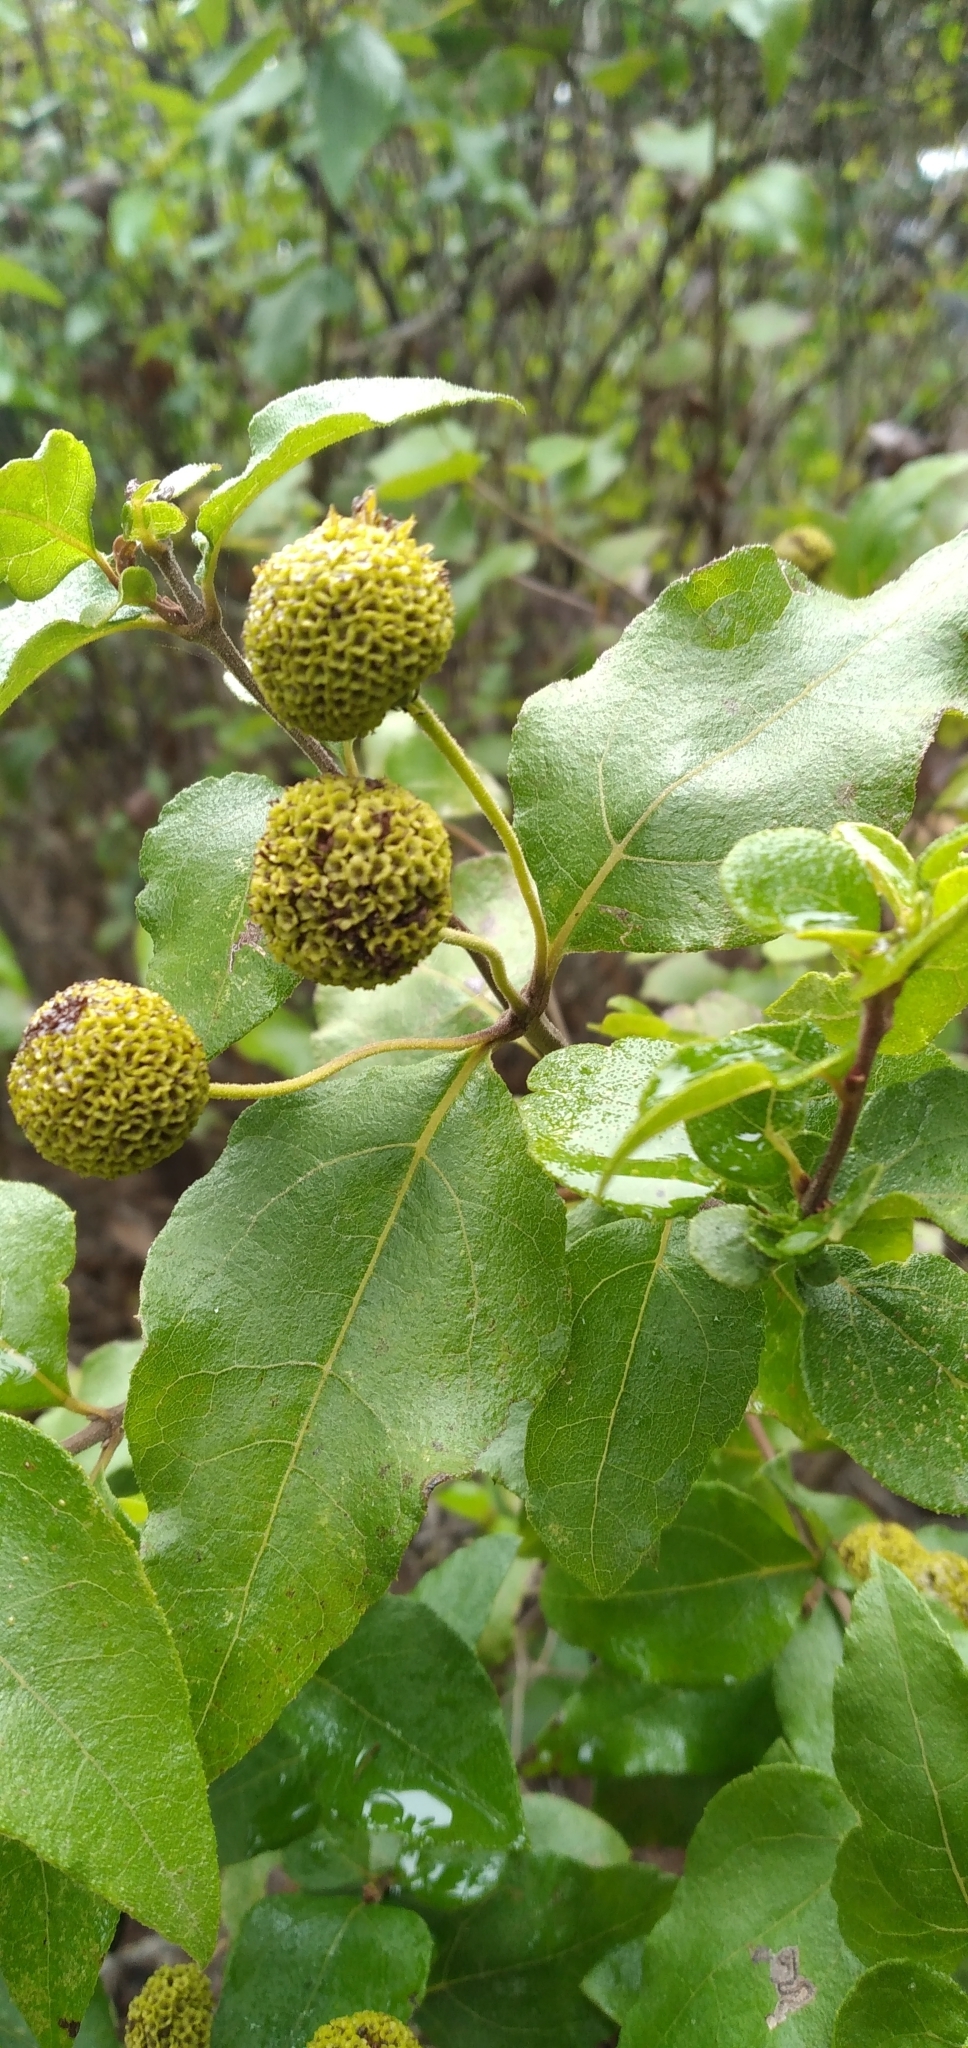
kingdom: Plantae
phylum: Tracheophyta
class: Magnoliopsida
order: Asterales
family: Asteraceae
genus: Podanthus
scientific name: Podanthus mitiqui
